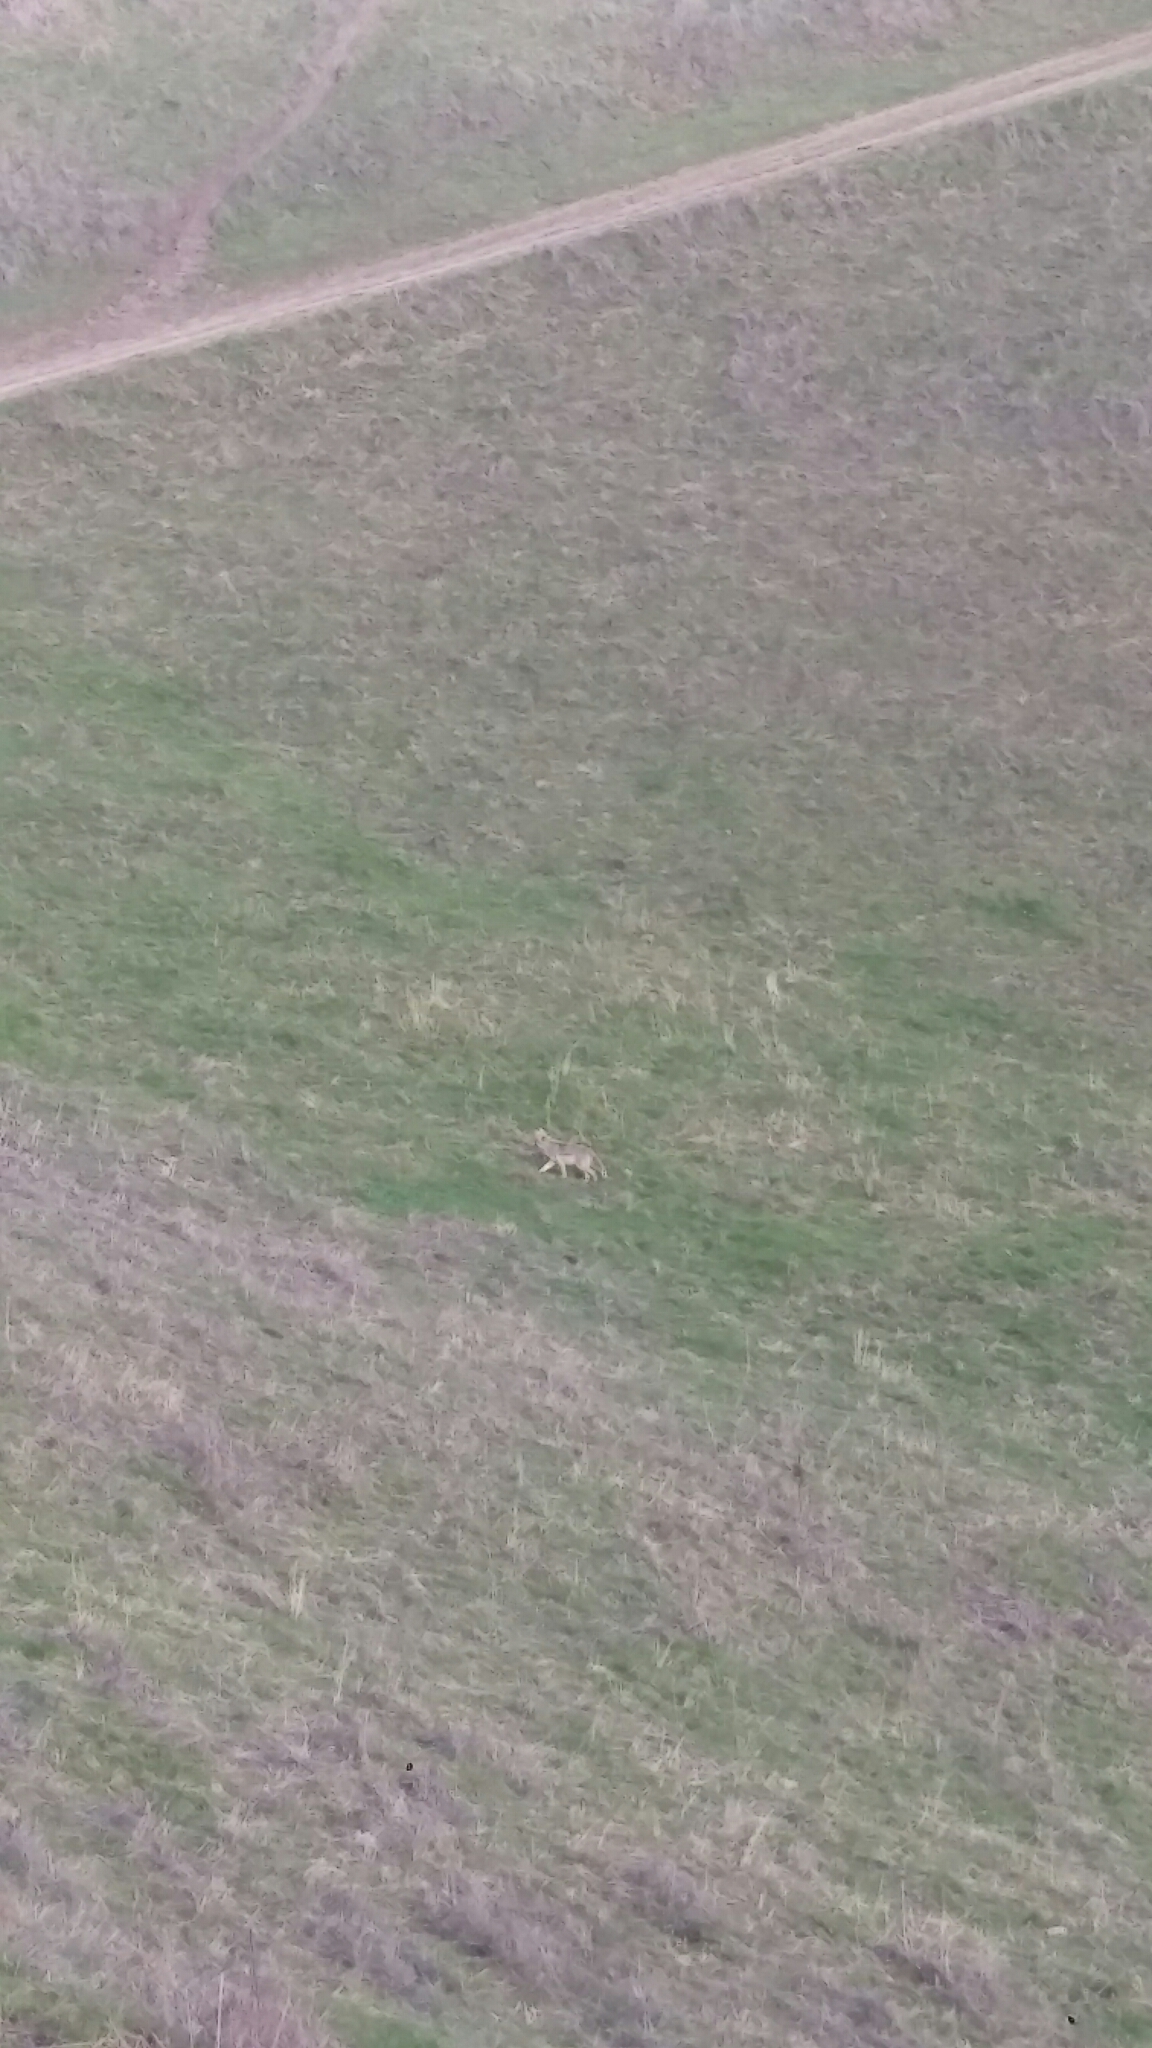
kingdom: Animalia
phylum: Chordata
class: Mammalia
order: Carnivora
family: Canidae
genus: Canis
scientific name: Canis latrans
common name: Coyote
